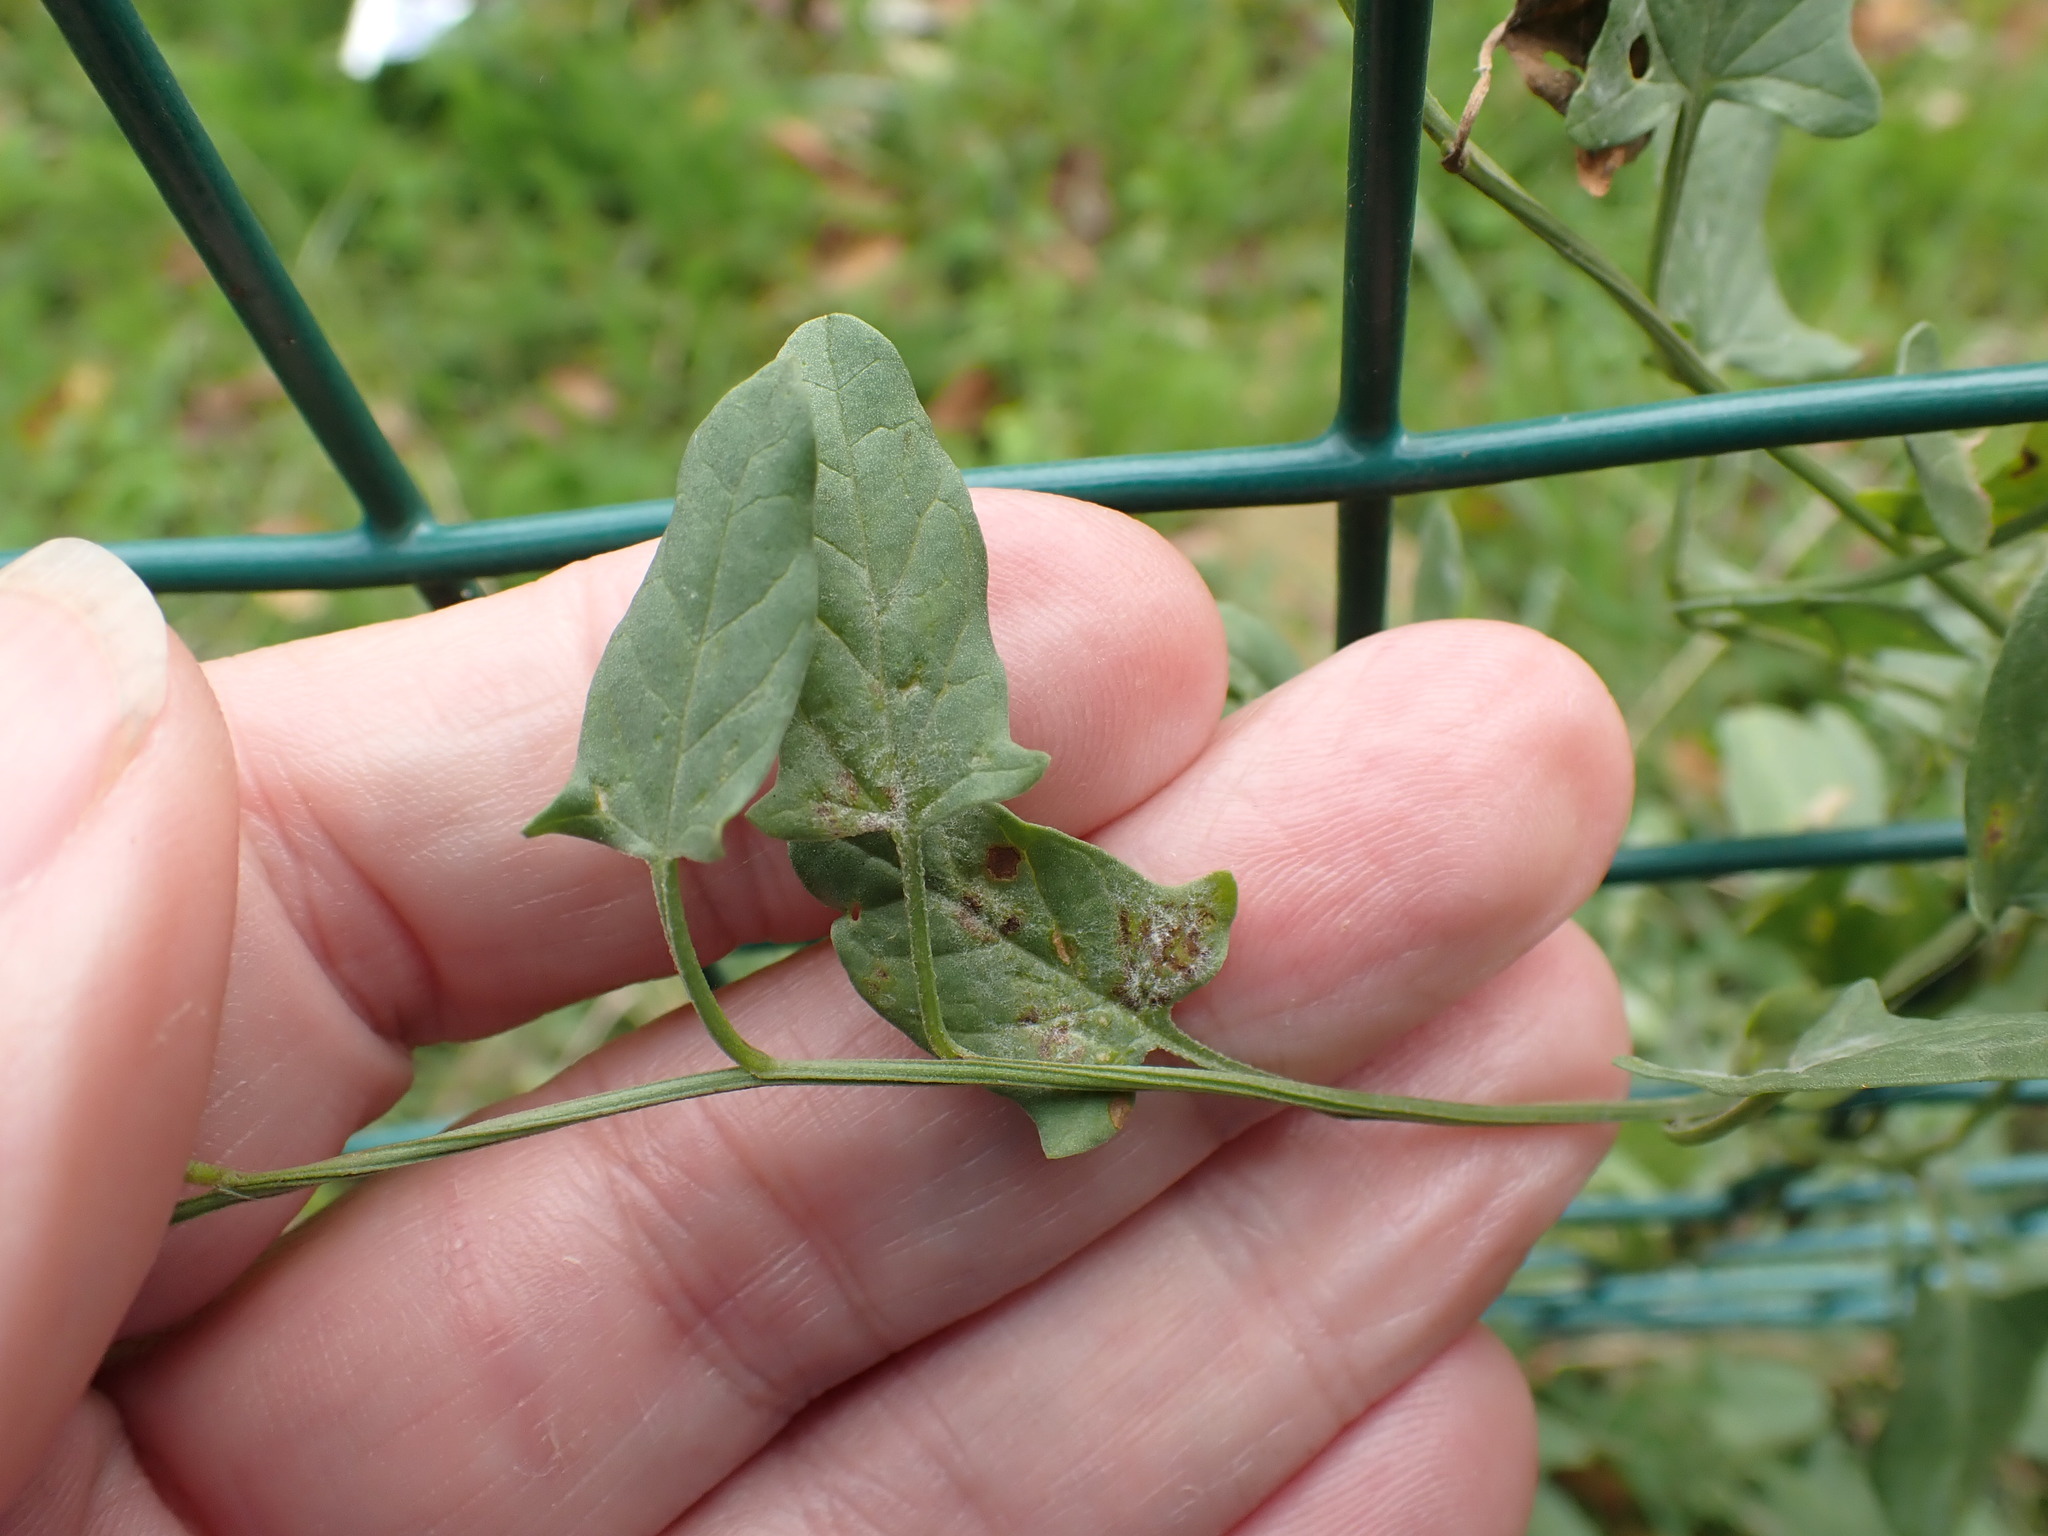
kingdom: Plantae
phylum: Tracheophyta
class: Magnoliopsida
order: Solanales
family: Convolvulaceae
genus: Convolvulus
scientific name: Convolvulus arvensis
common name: Field bindweed
